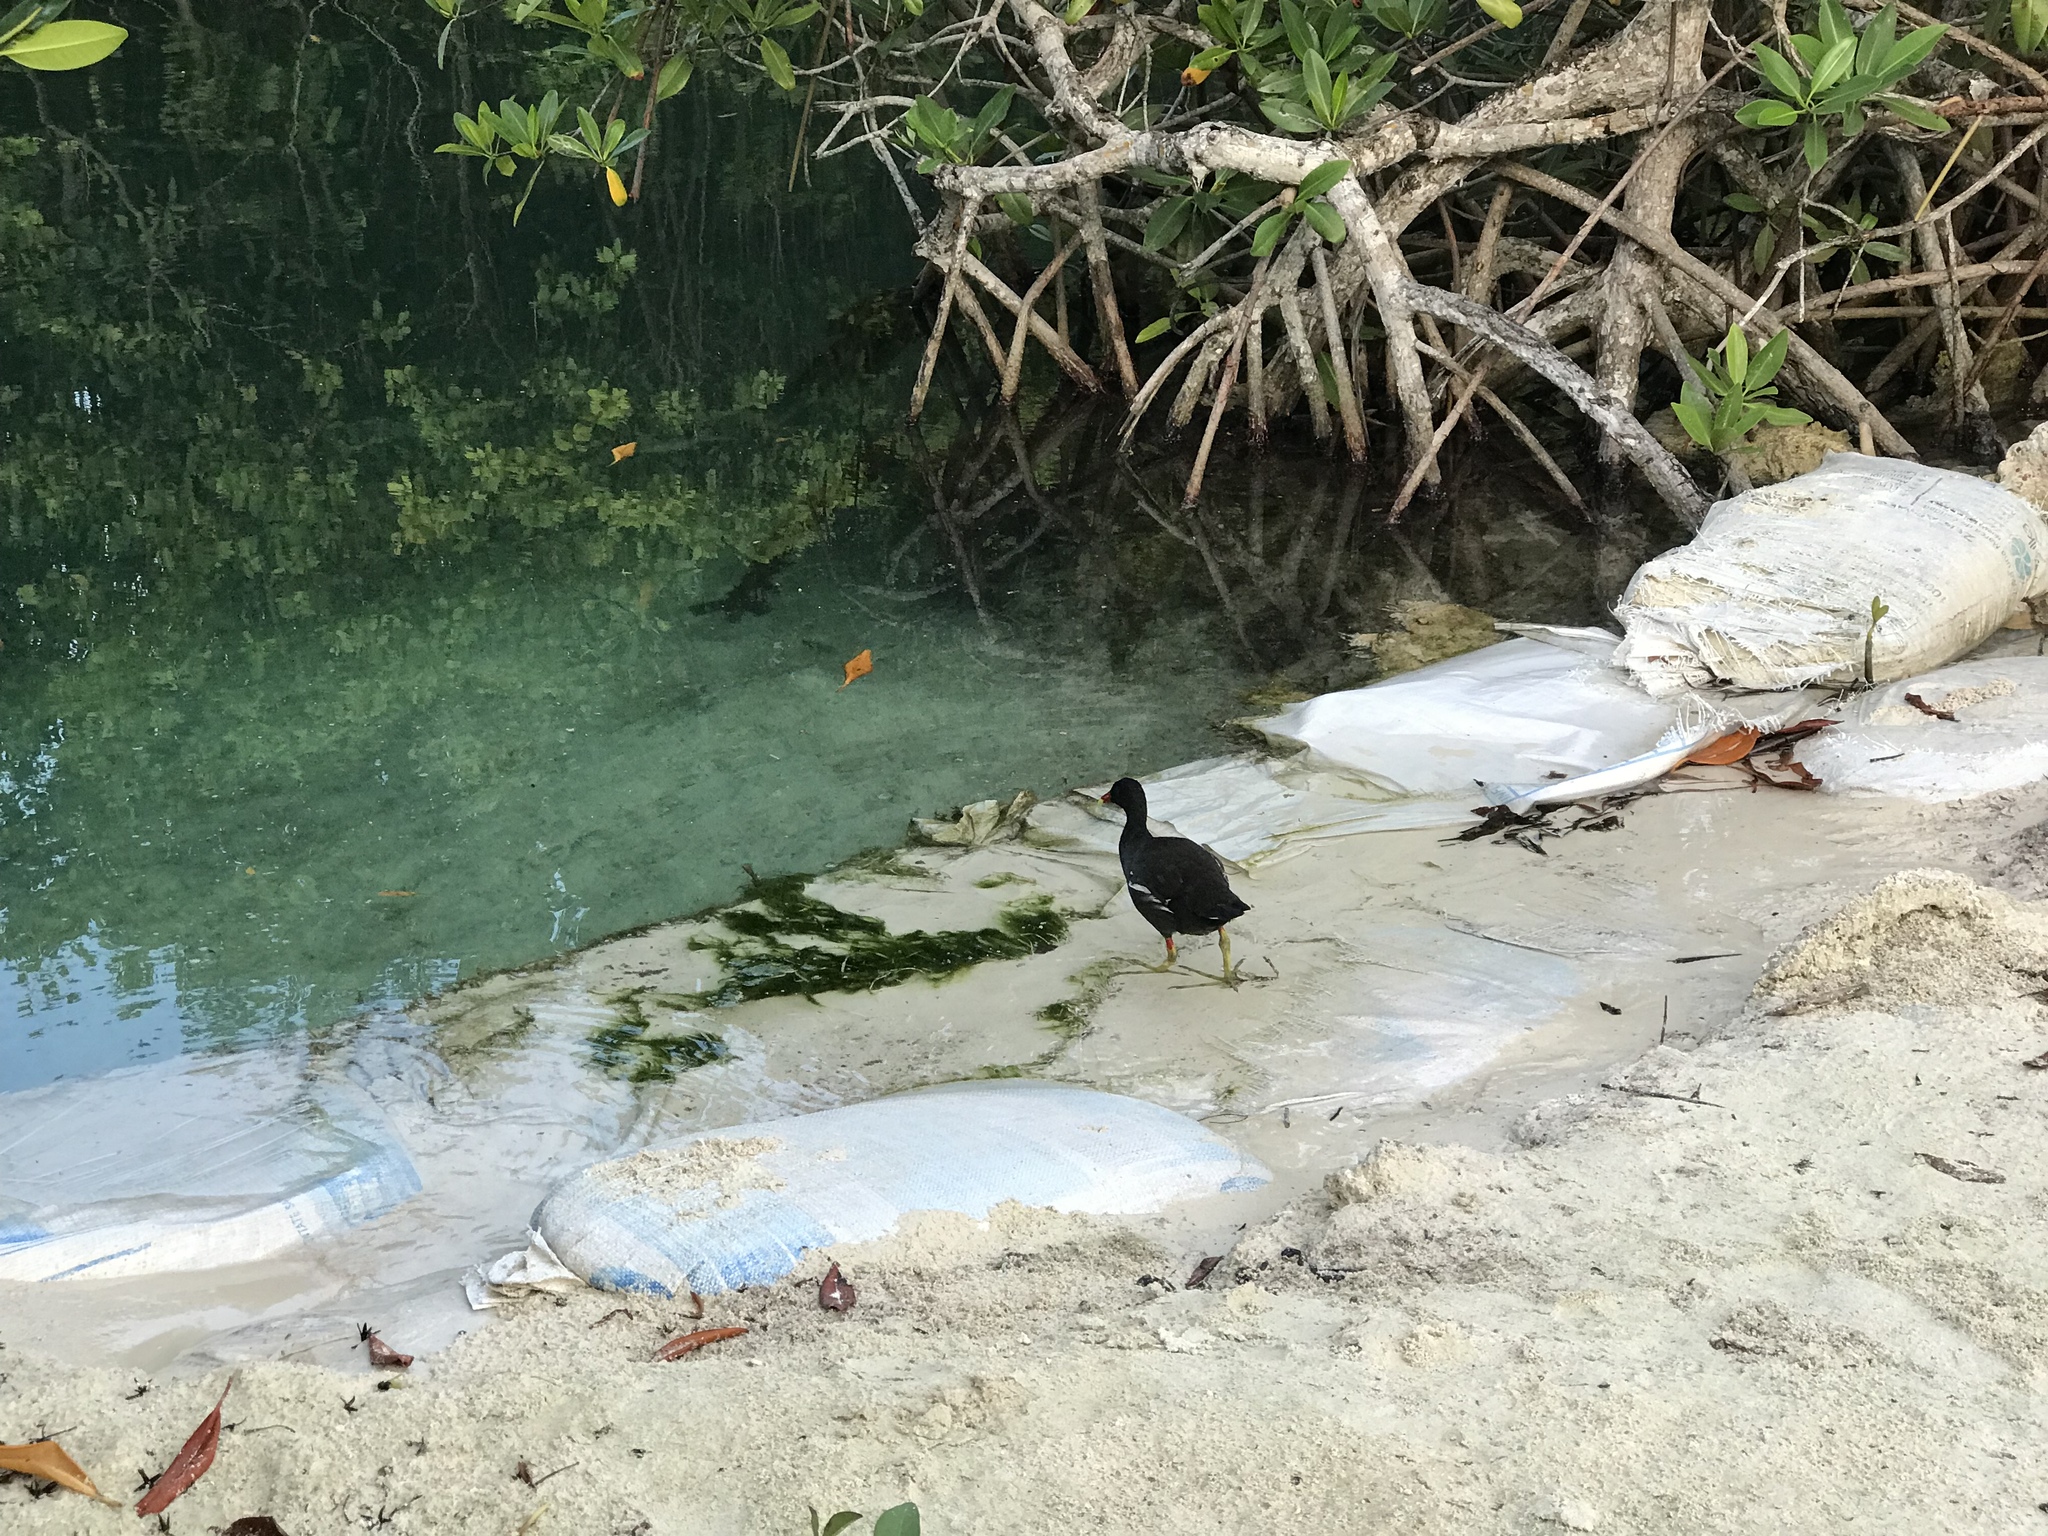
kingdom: Animalia
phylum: Chordata
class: Aves
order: Gruiformes
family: Rallidae
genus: Gallinula
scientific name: Gallinula chloropus
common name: Common moorhen
